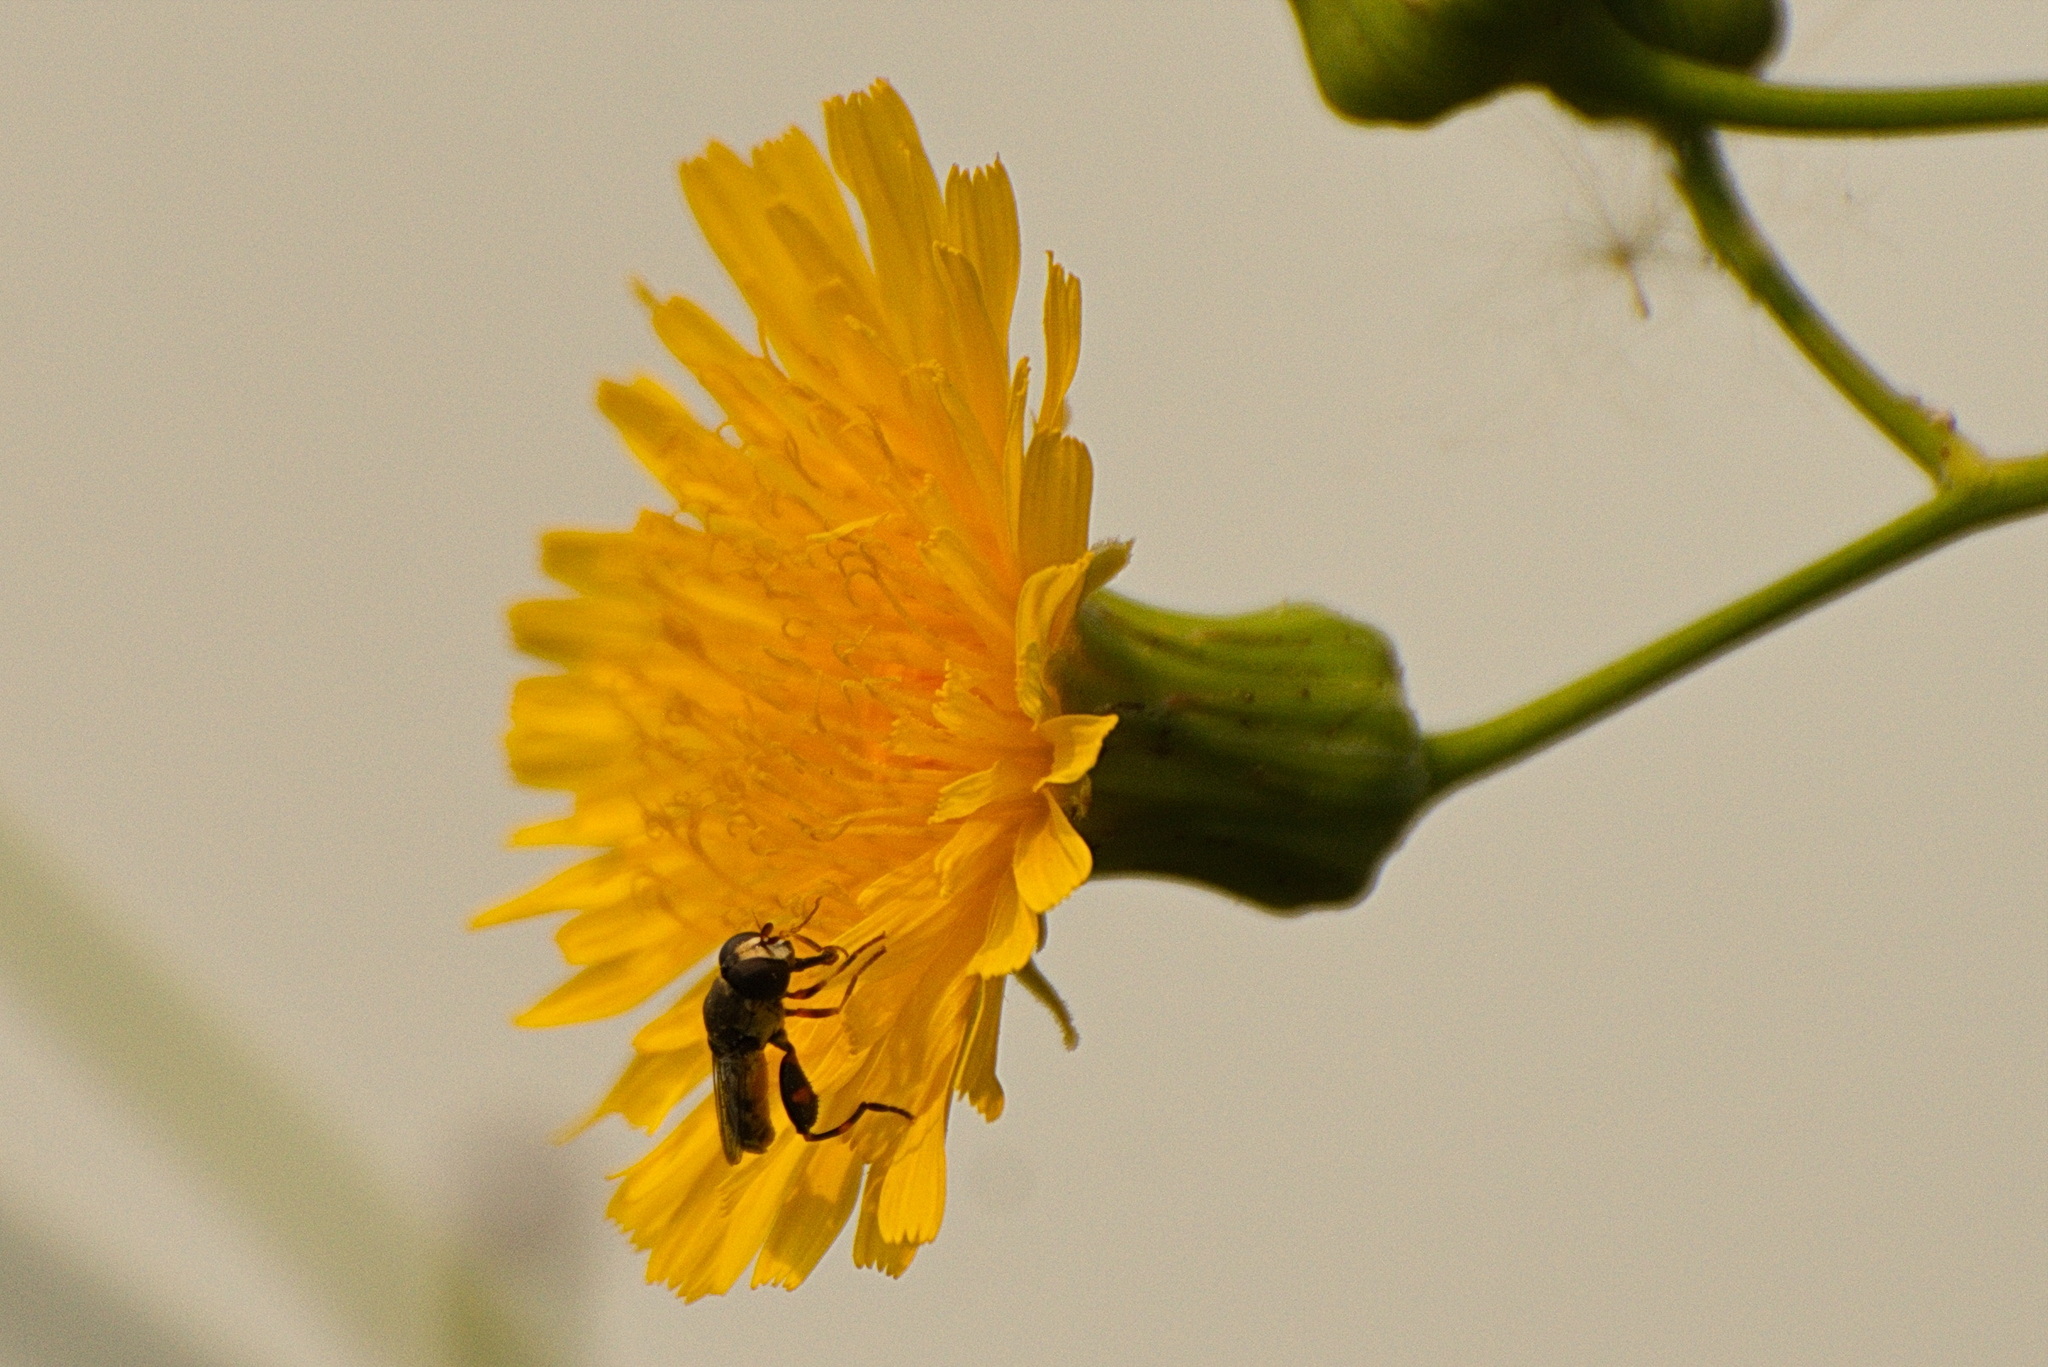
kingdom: Animalia
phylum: Arthropoda
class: Insecta
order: Diptera
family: Syrphidae
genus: Syritta
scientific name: Syritta pipiens
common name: Hover fly
